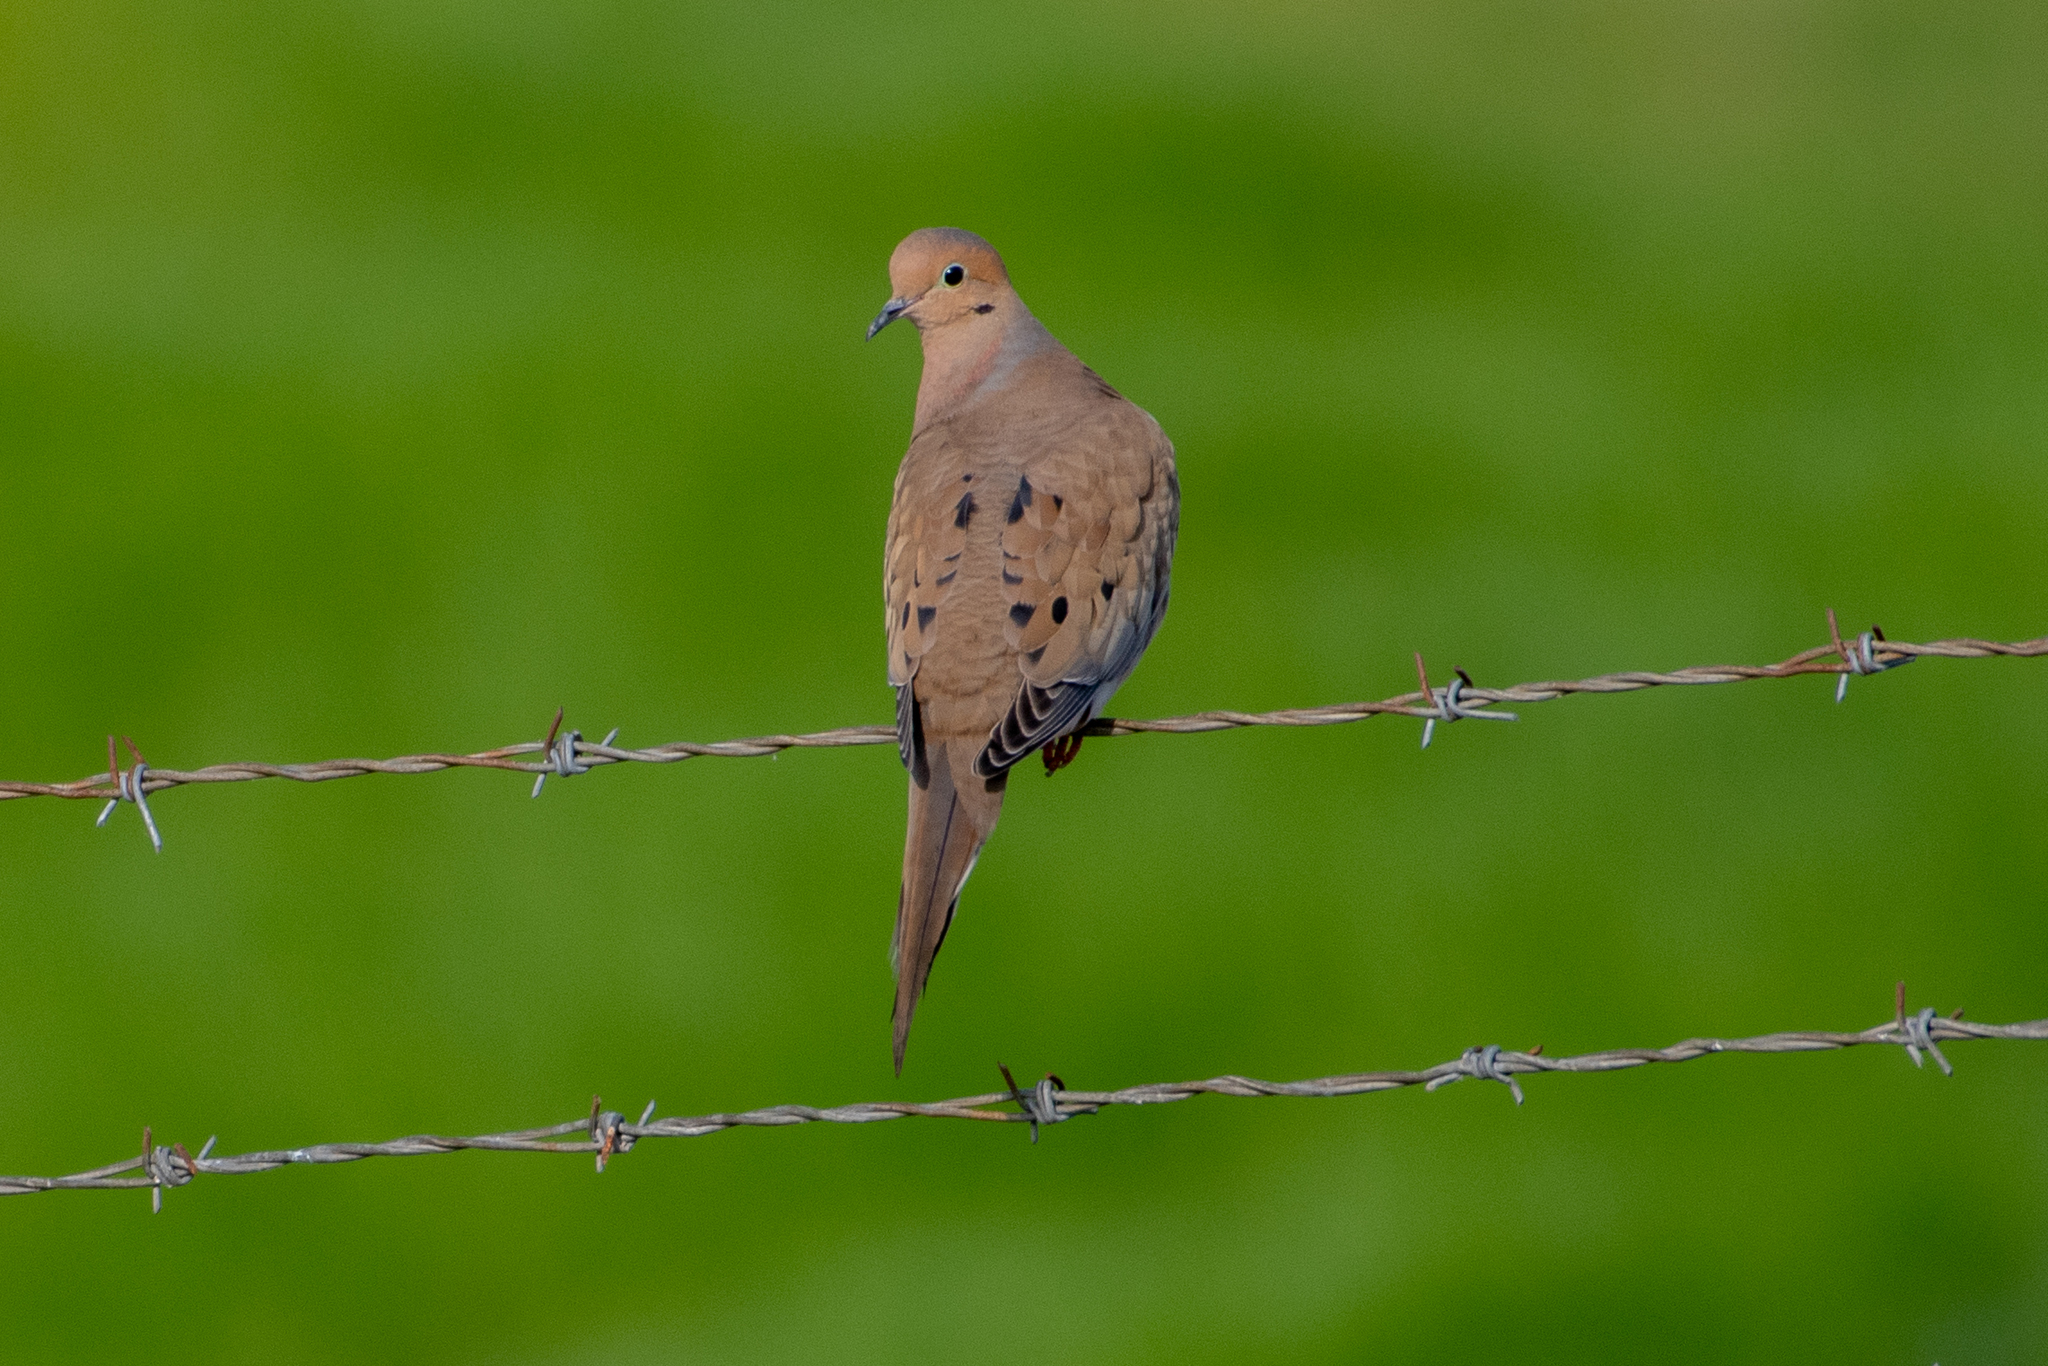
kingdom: Animalia
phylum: Chordata
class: Aves
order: Columbiformes
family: Columbidae
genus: Zenaida
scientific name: Zenaida macroura
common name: Mourning dove
